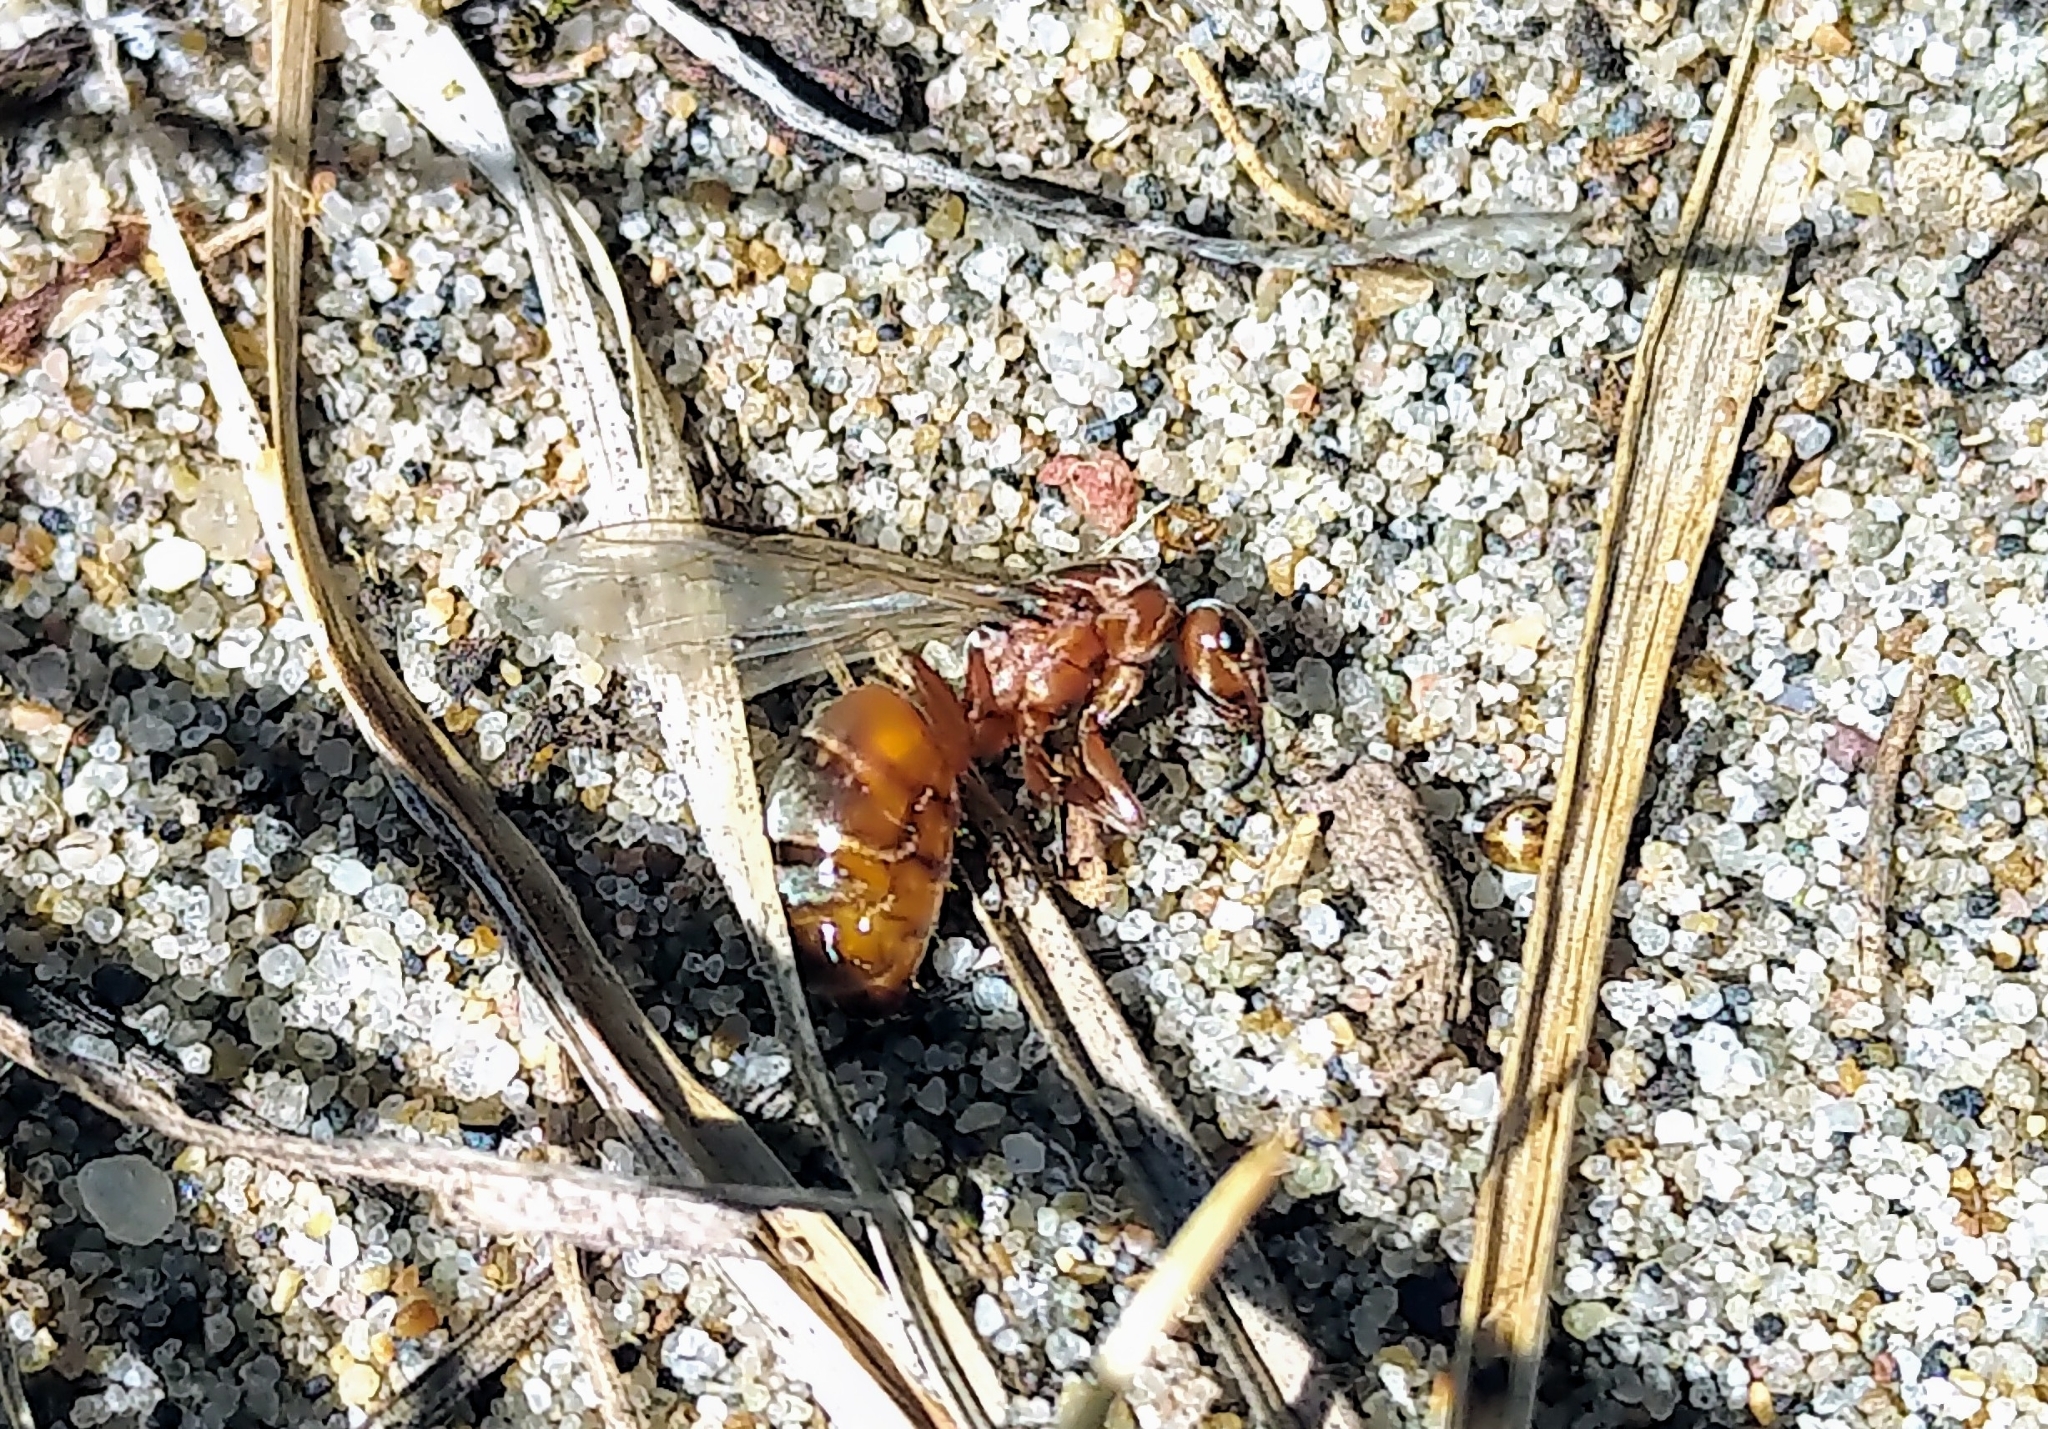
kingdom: Animalia
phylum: Arthropoda
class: Insecta
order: Hymenoptera
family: Formicidae
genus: Formica
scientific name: Formica neoclara
